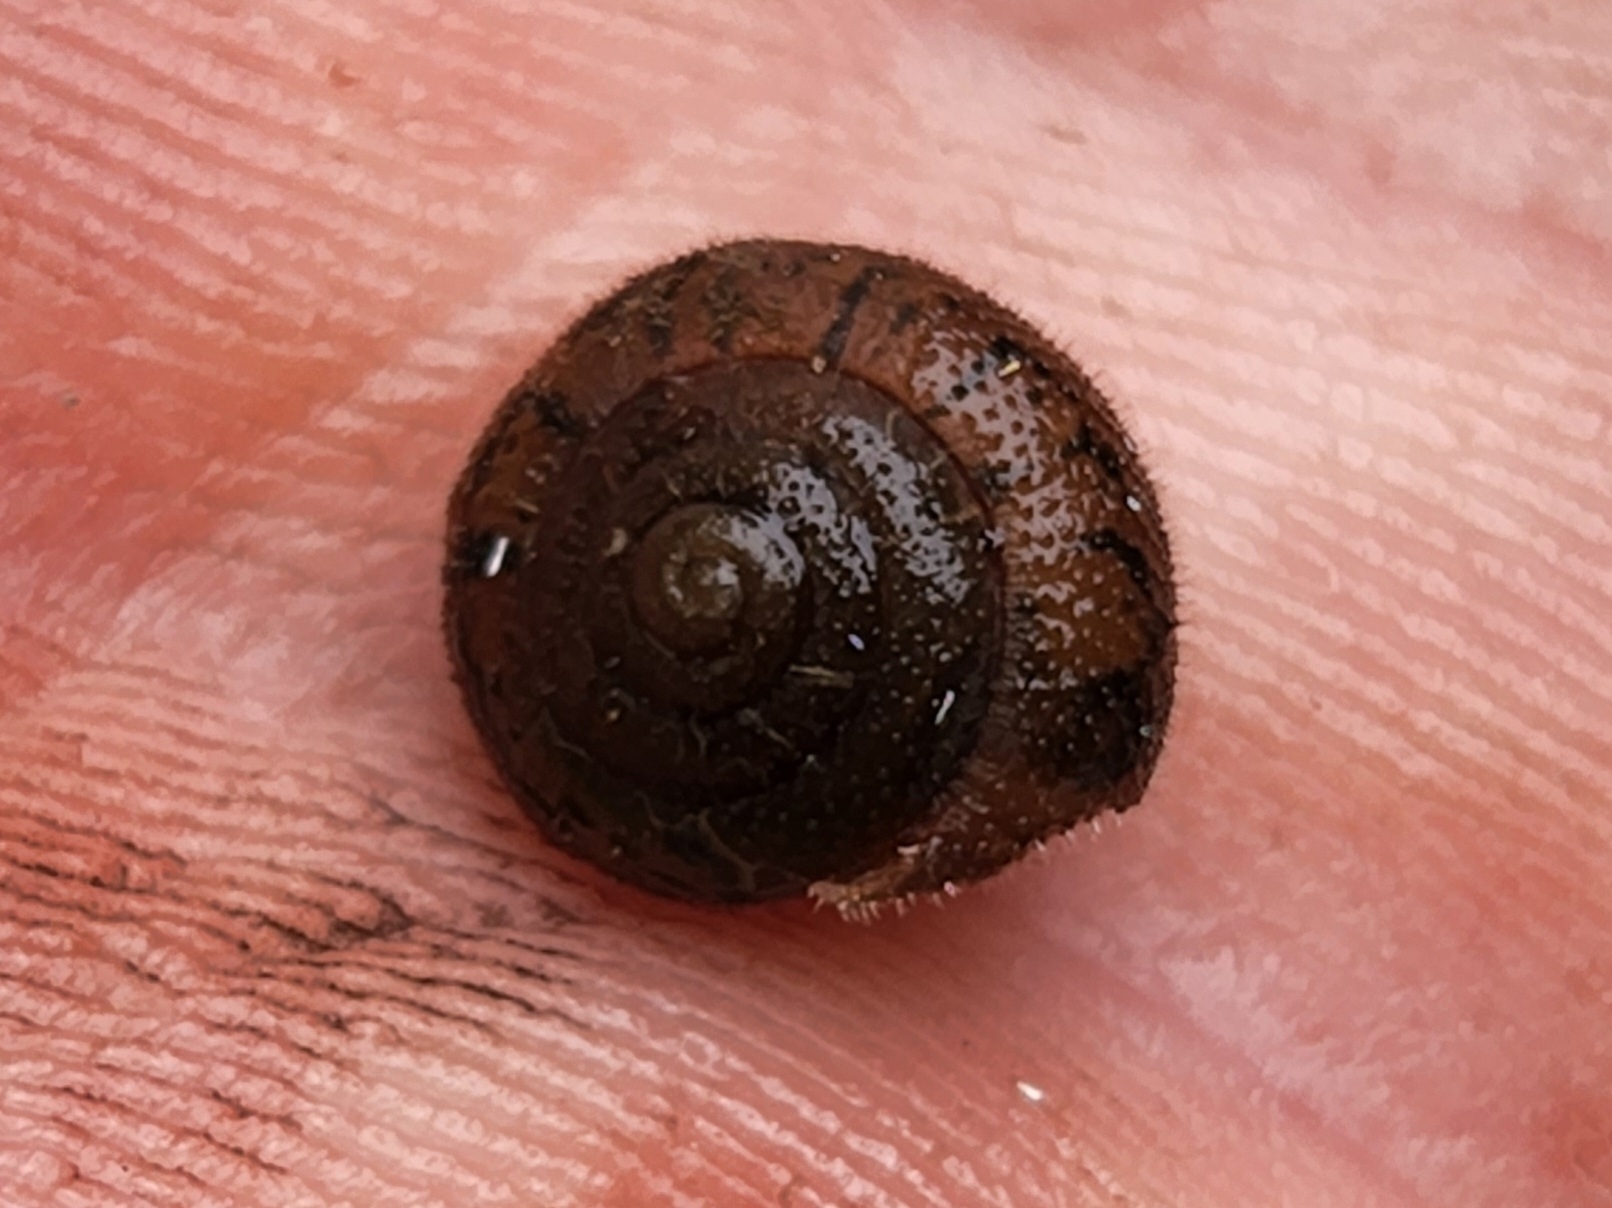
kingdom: Animalia
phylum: Mollusca
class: Gastropoda
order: Stylommatophora
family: Polygyridae
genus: Vespericola
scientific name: Vespericola columbianus
